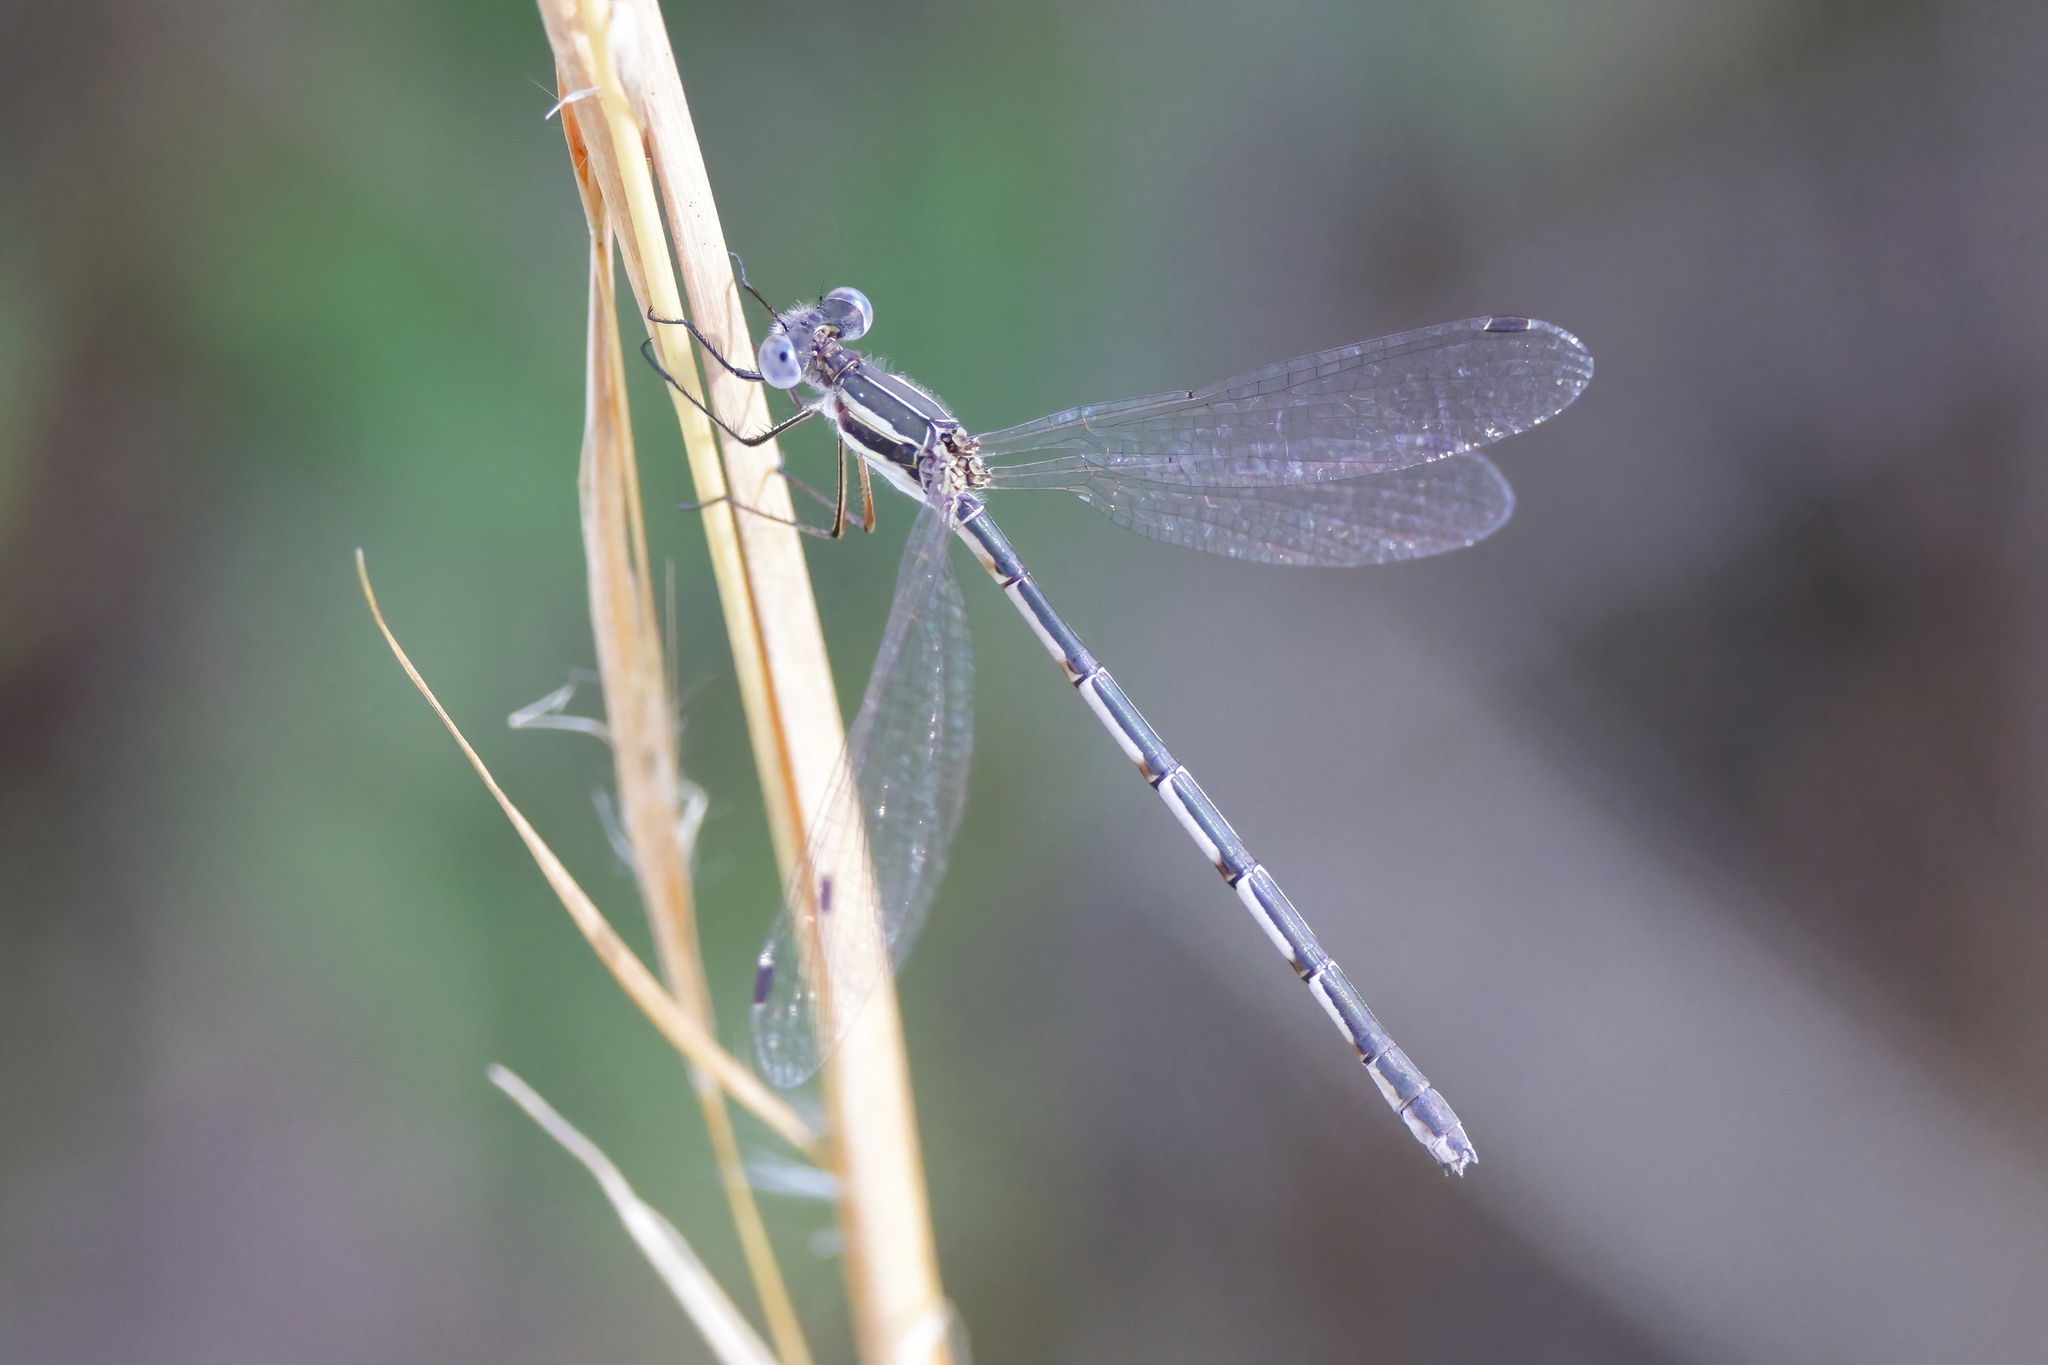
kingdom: Animalia
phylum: Arthropoda
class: Insecta
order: Odonata
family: Lestidae
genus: Lestes
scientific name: Lestes australis
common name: Southern spreadwing
